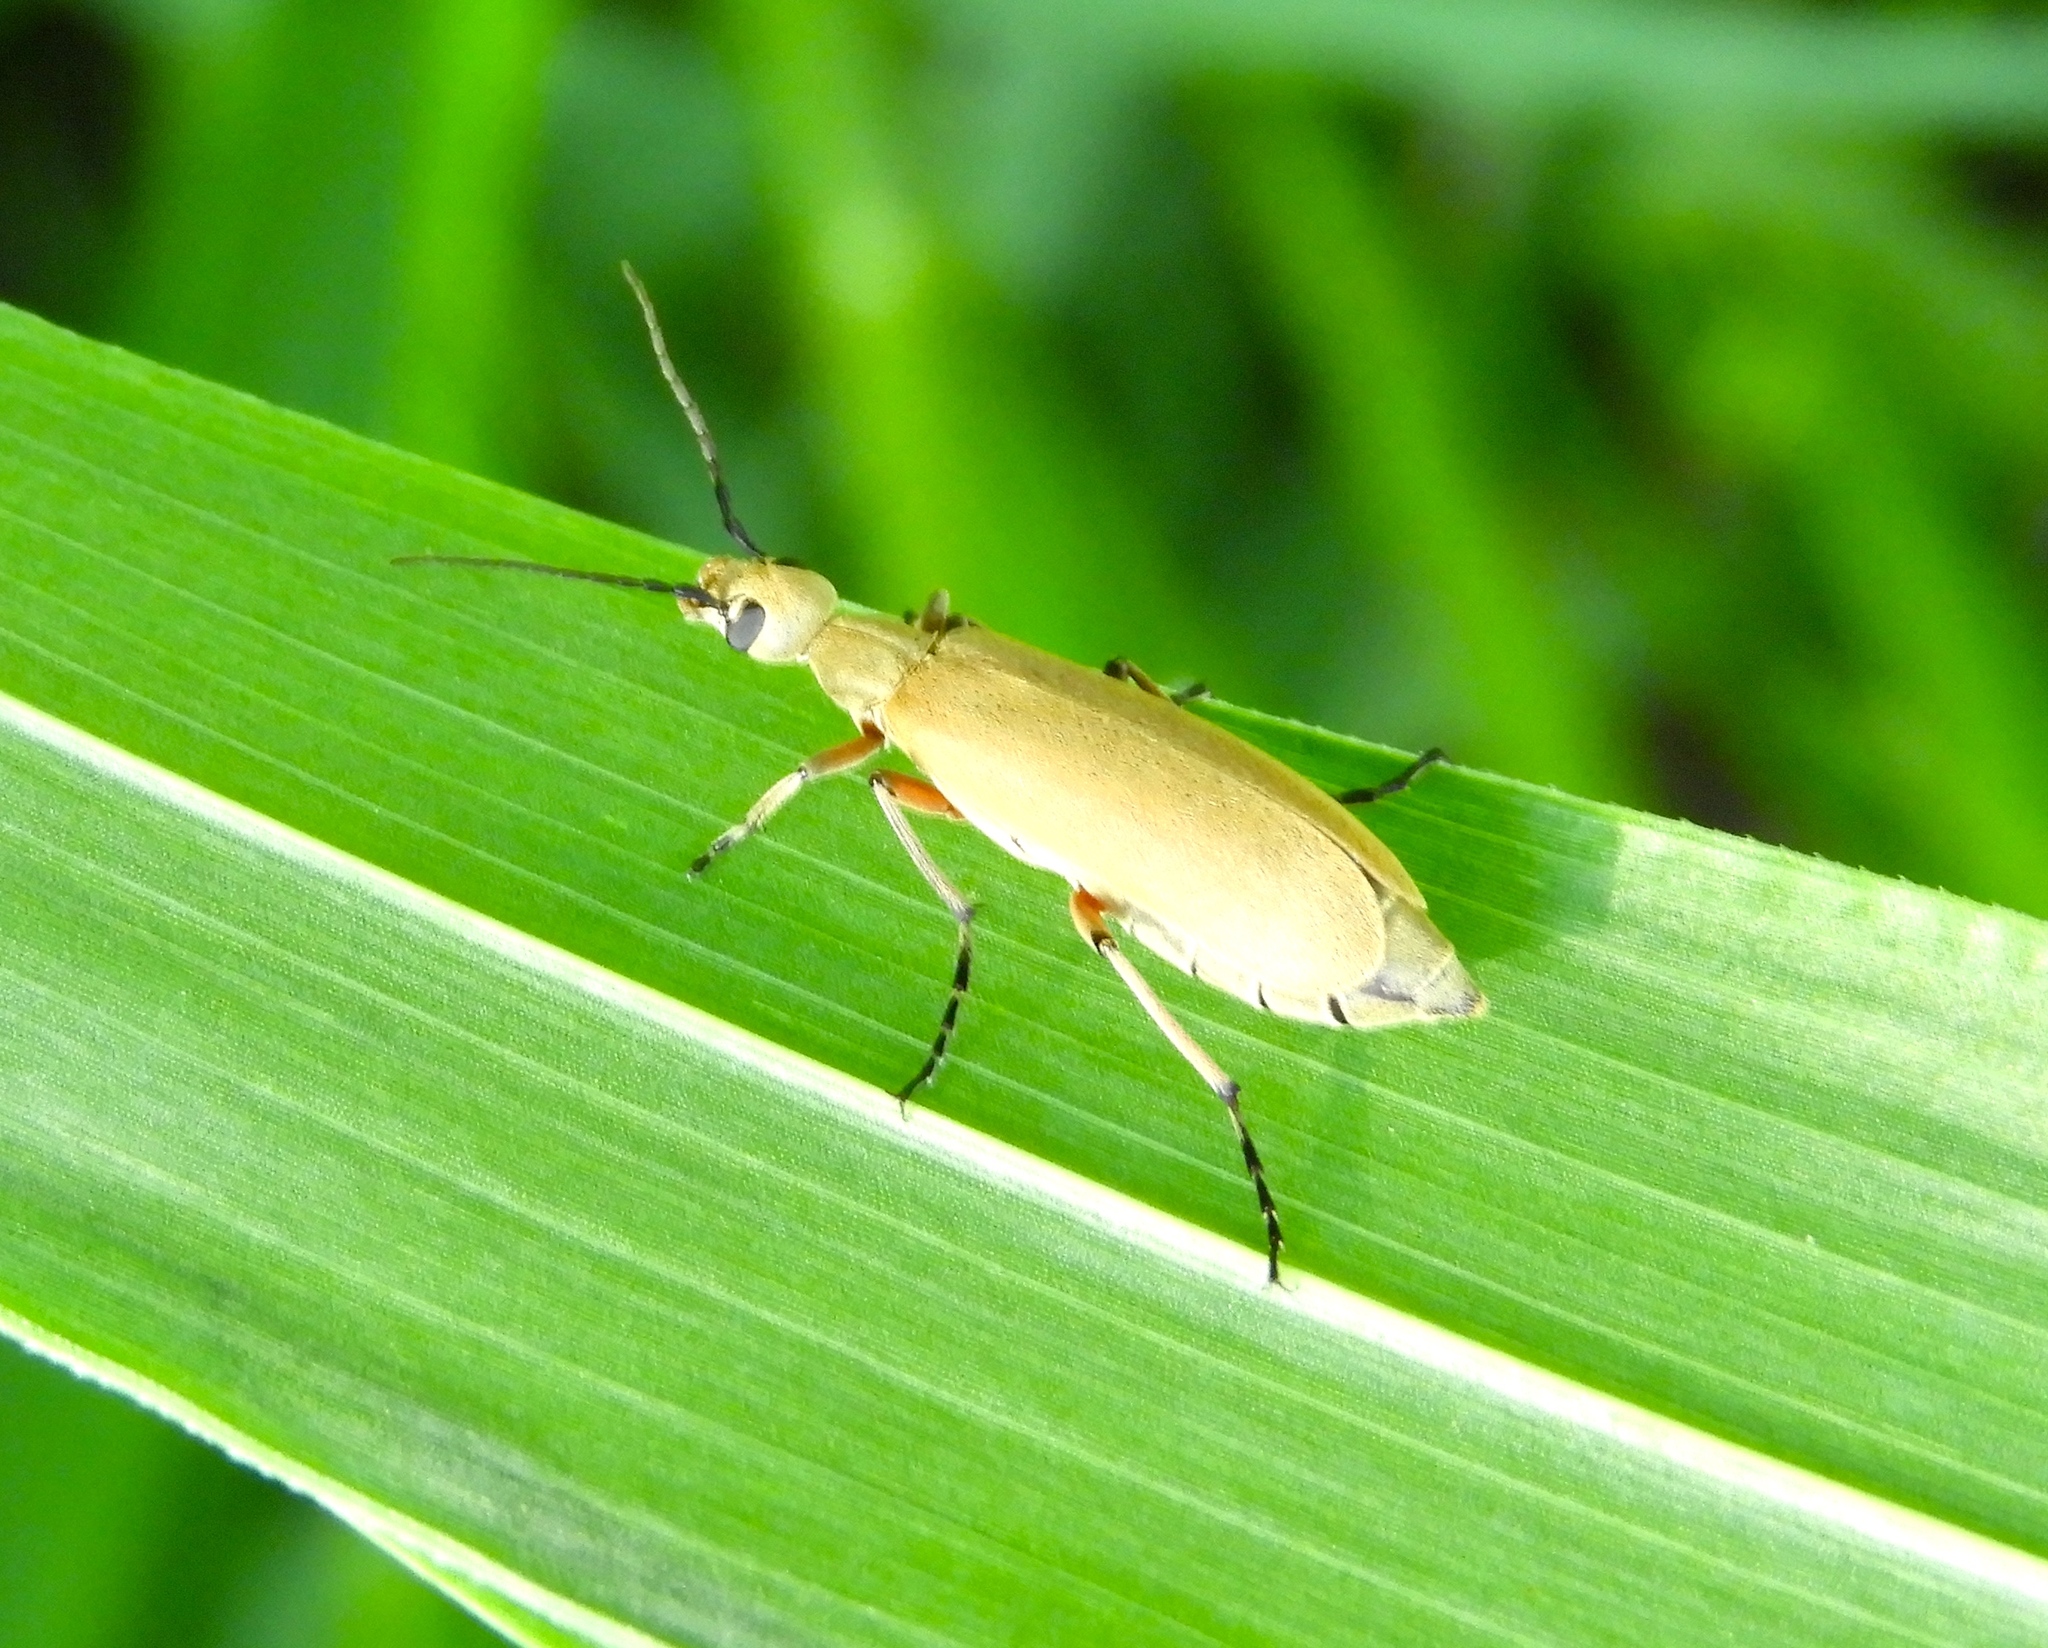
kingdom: Animalia
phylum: Arthropoda
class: Insecta
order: Coleoptera
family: Meloidae
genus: Epicauta
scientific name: Epicauta
